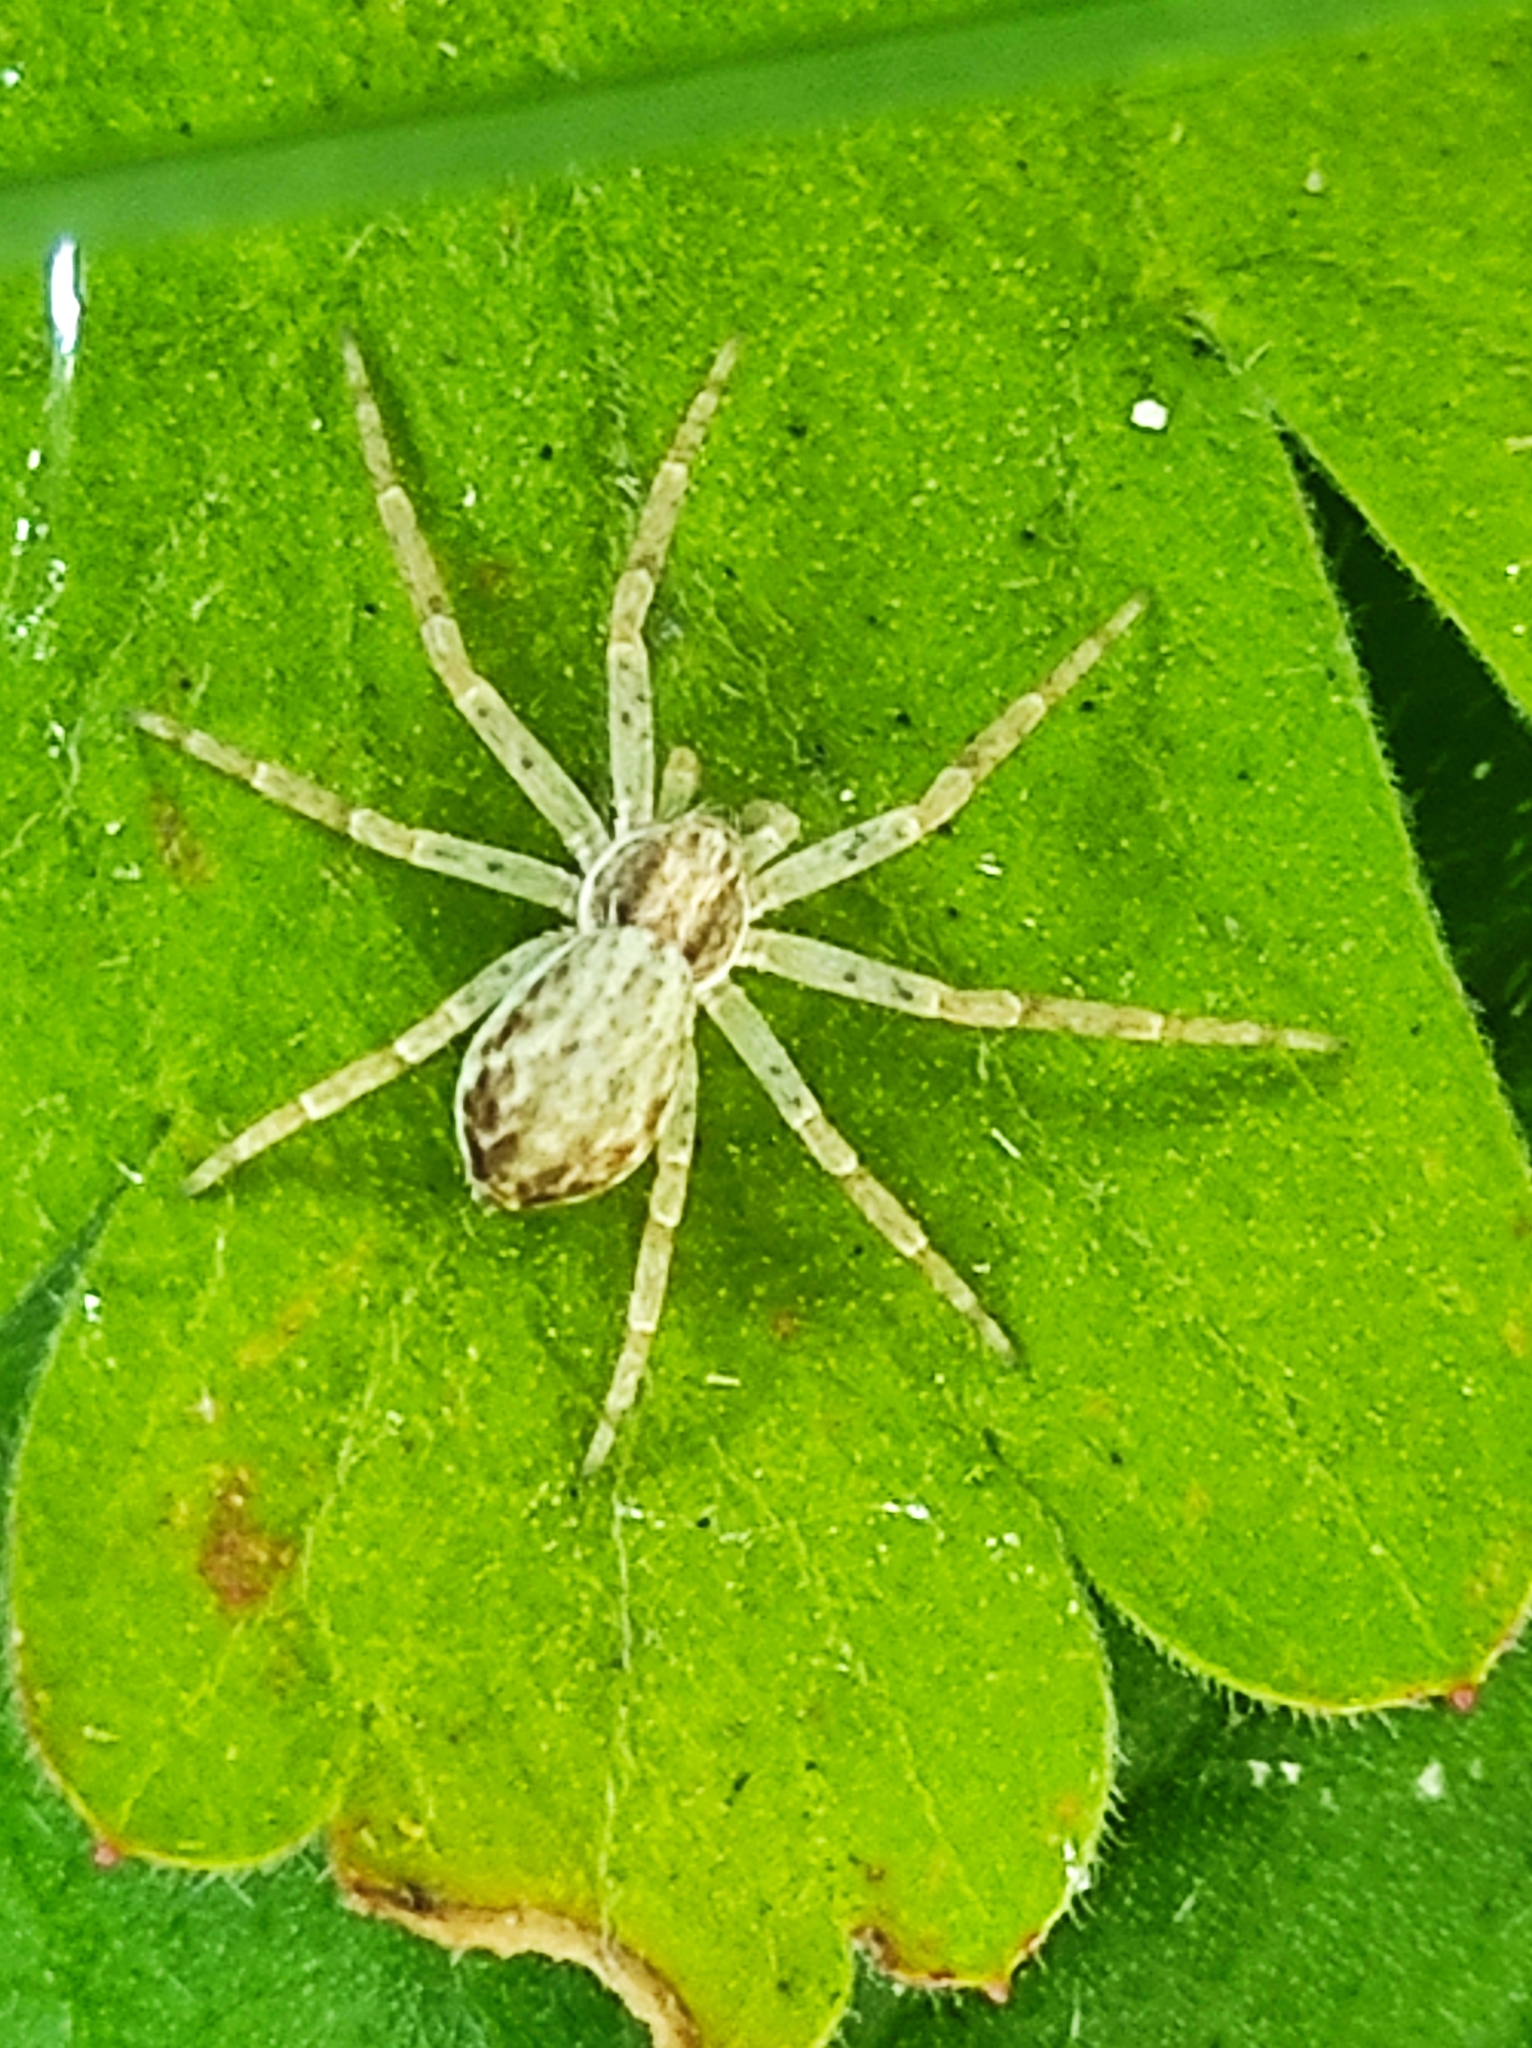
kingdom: Animalia
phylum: Arthropoda
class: Arachnida
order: Araneae
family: Philodromidae
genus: Philodromus
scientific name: Philodromus dispar
